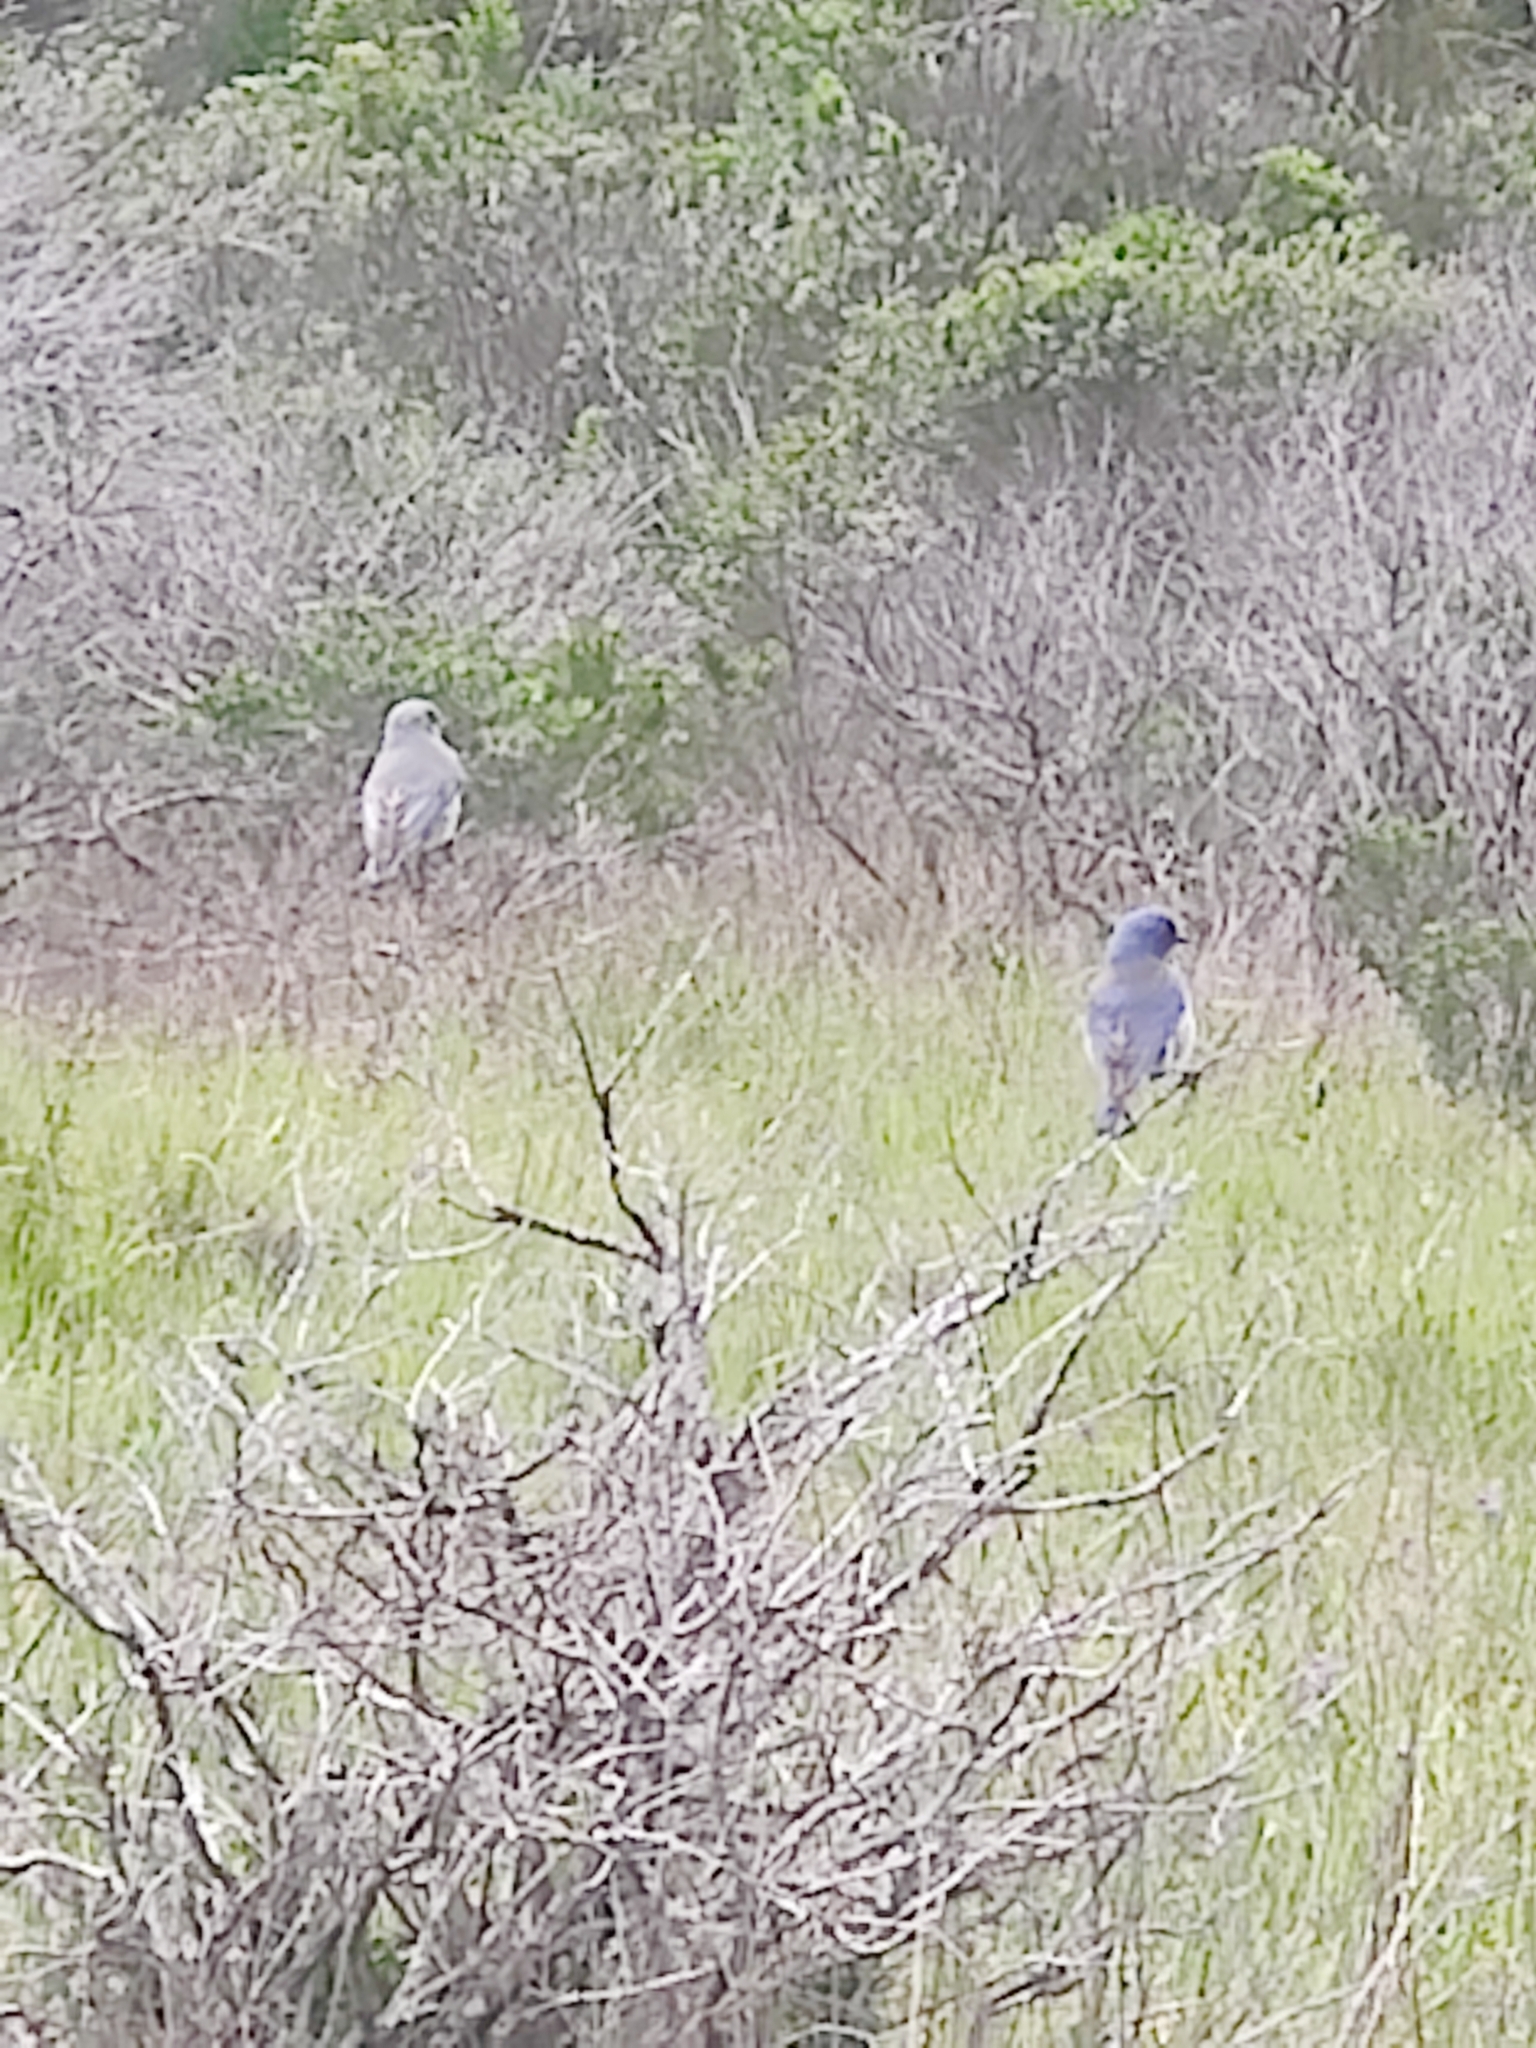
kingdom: Animalia
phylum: Chordata
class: Aves
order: Passeriformes
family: Turdidae
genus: Sialia
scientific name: Sialia mexicana
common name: Western bluebird
